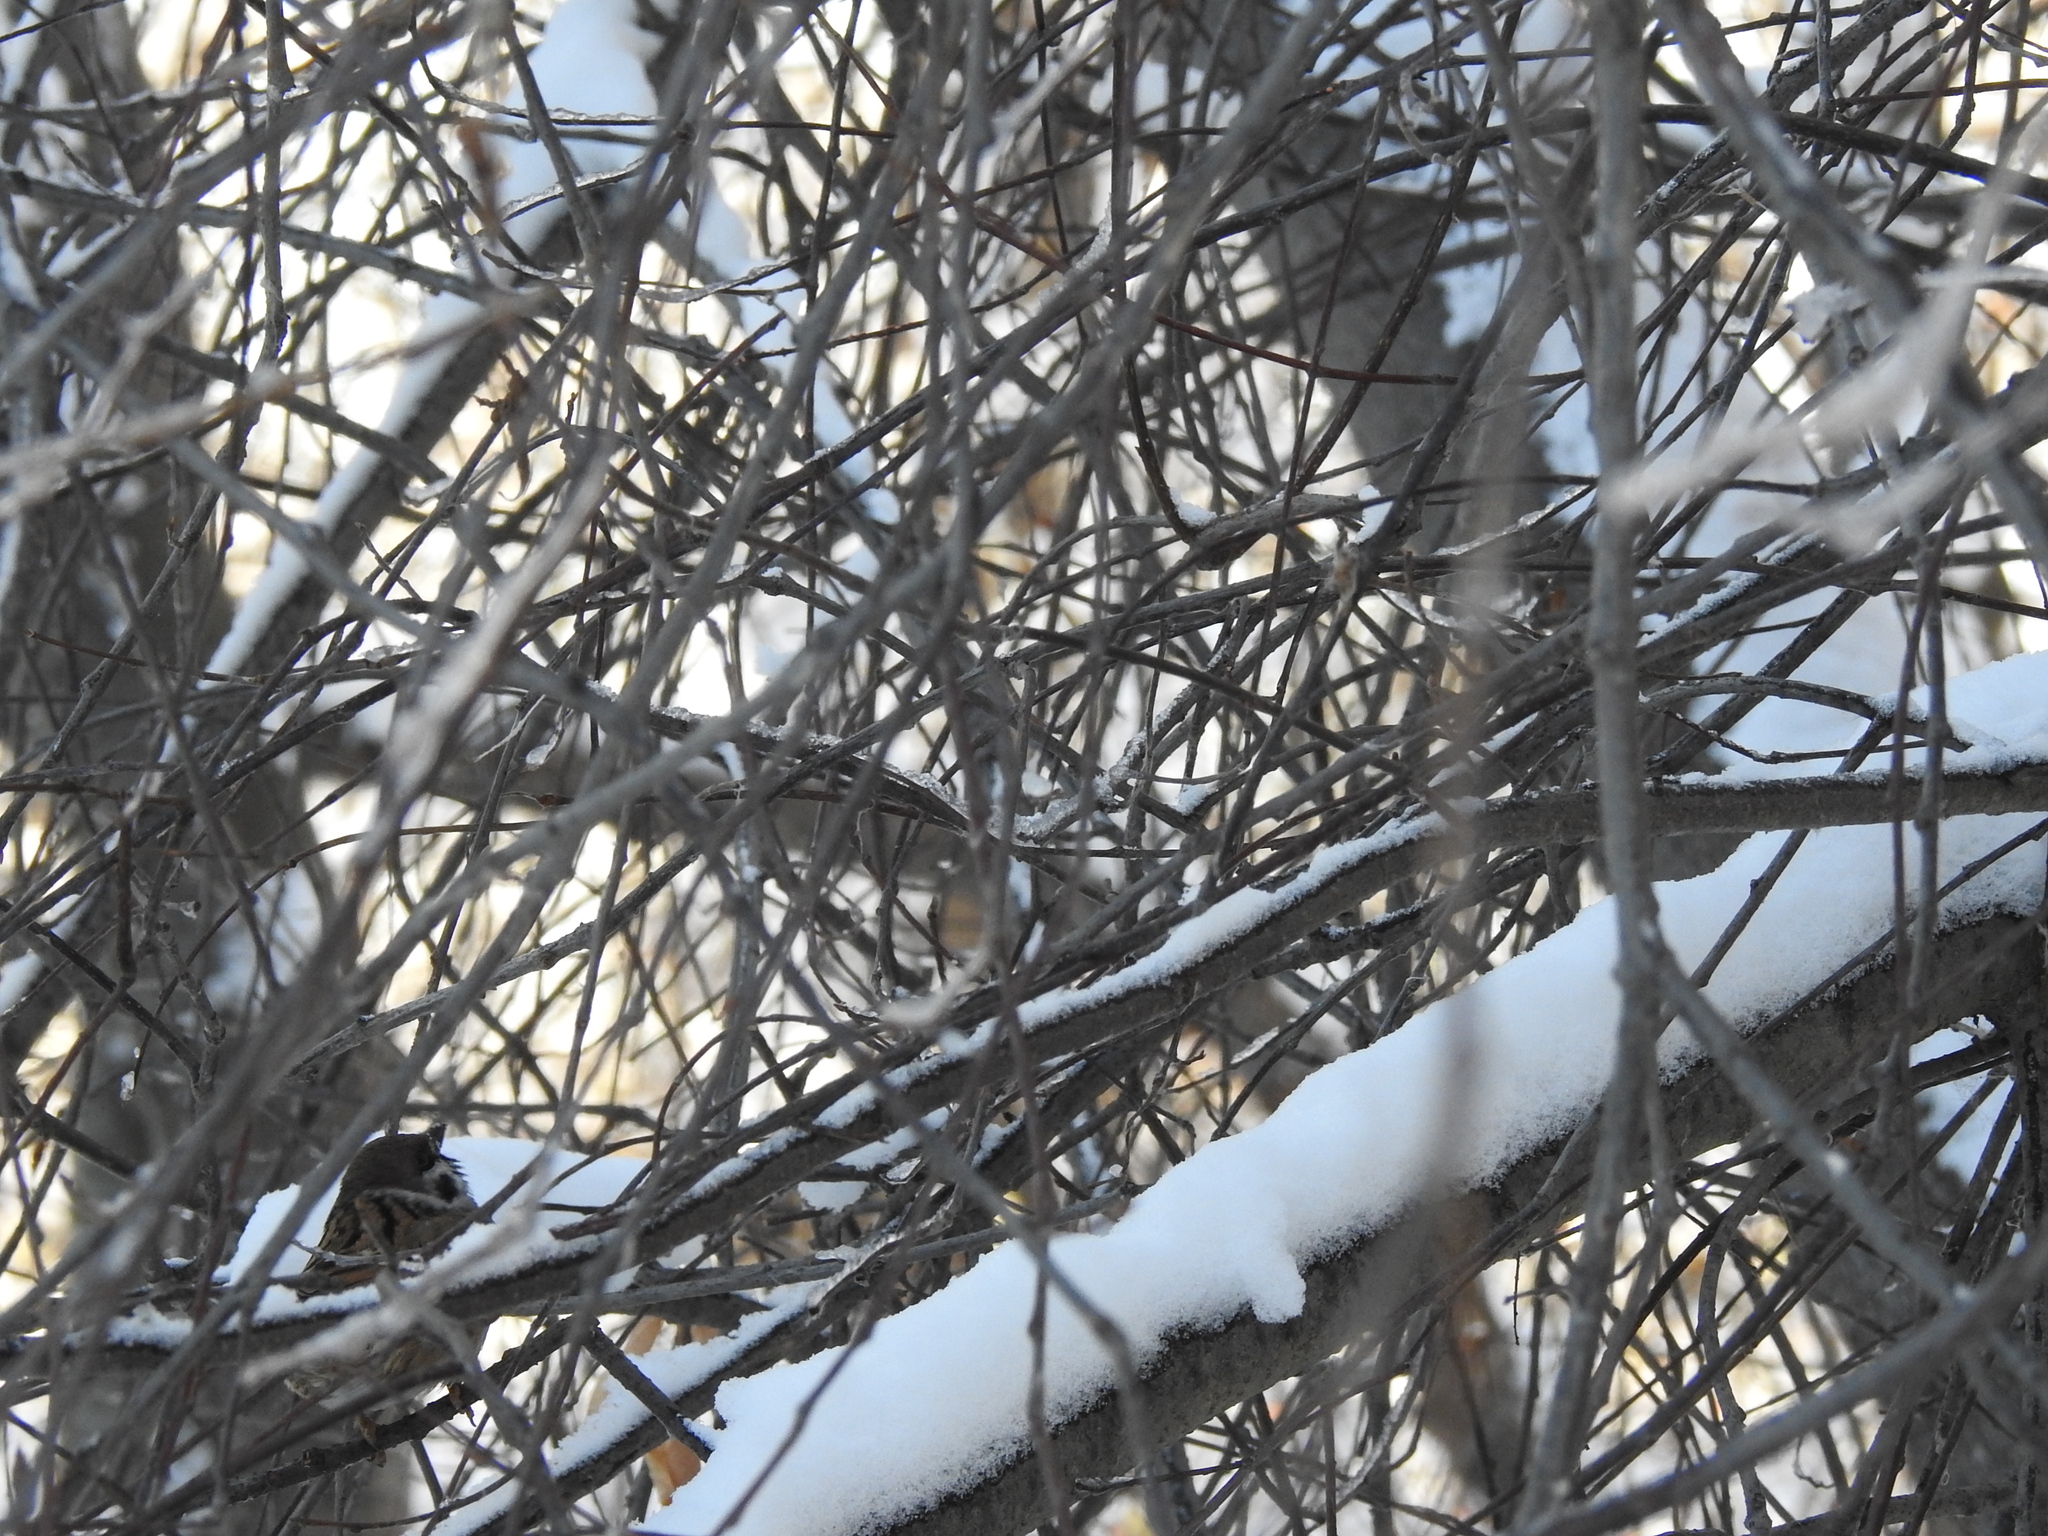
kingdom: Animalia
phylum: Chordata
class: Aves
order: Passeriformes
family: Passeridae
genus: Passer
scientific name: Passer montanus
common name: Eurasian tree sparrow
